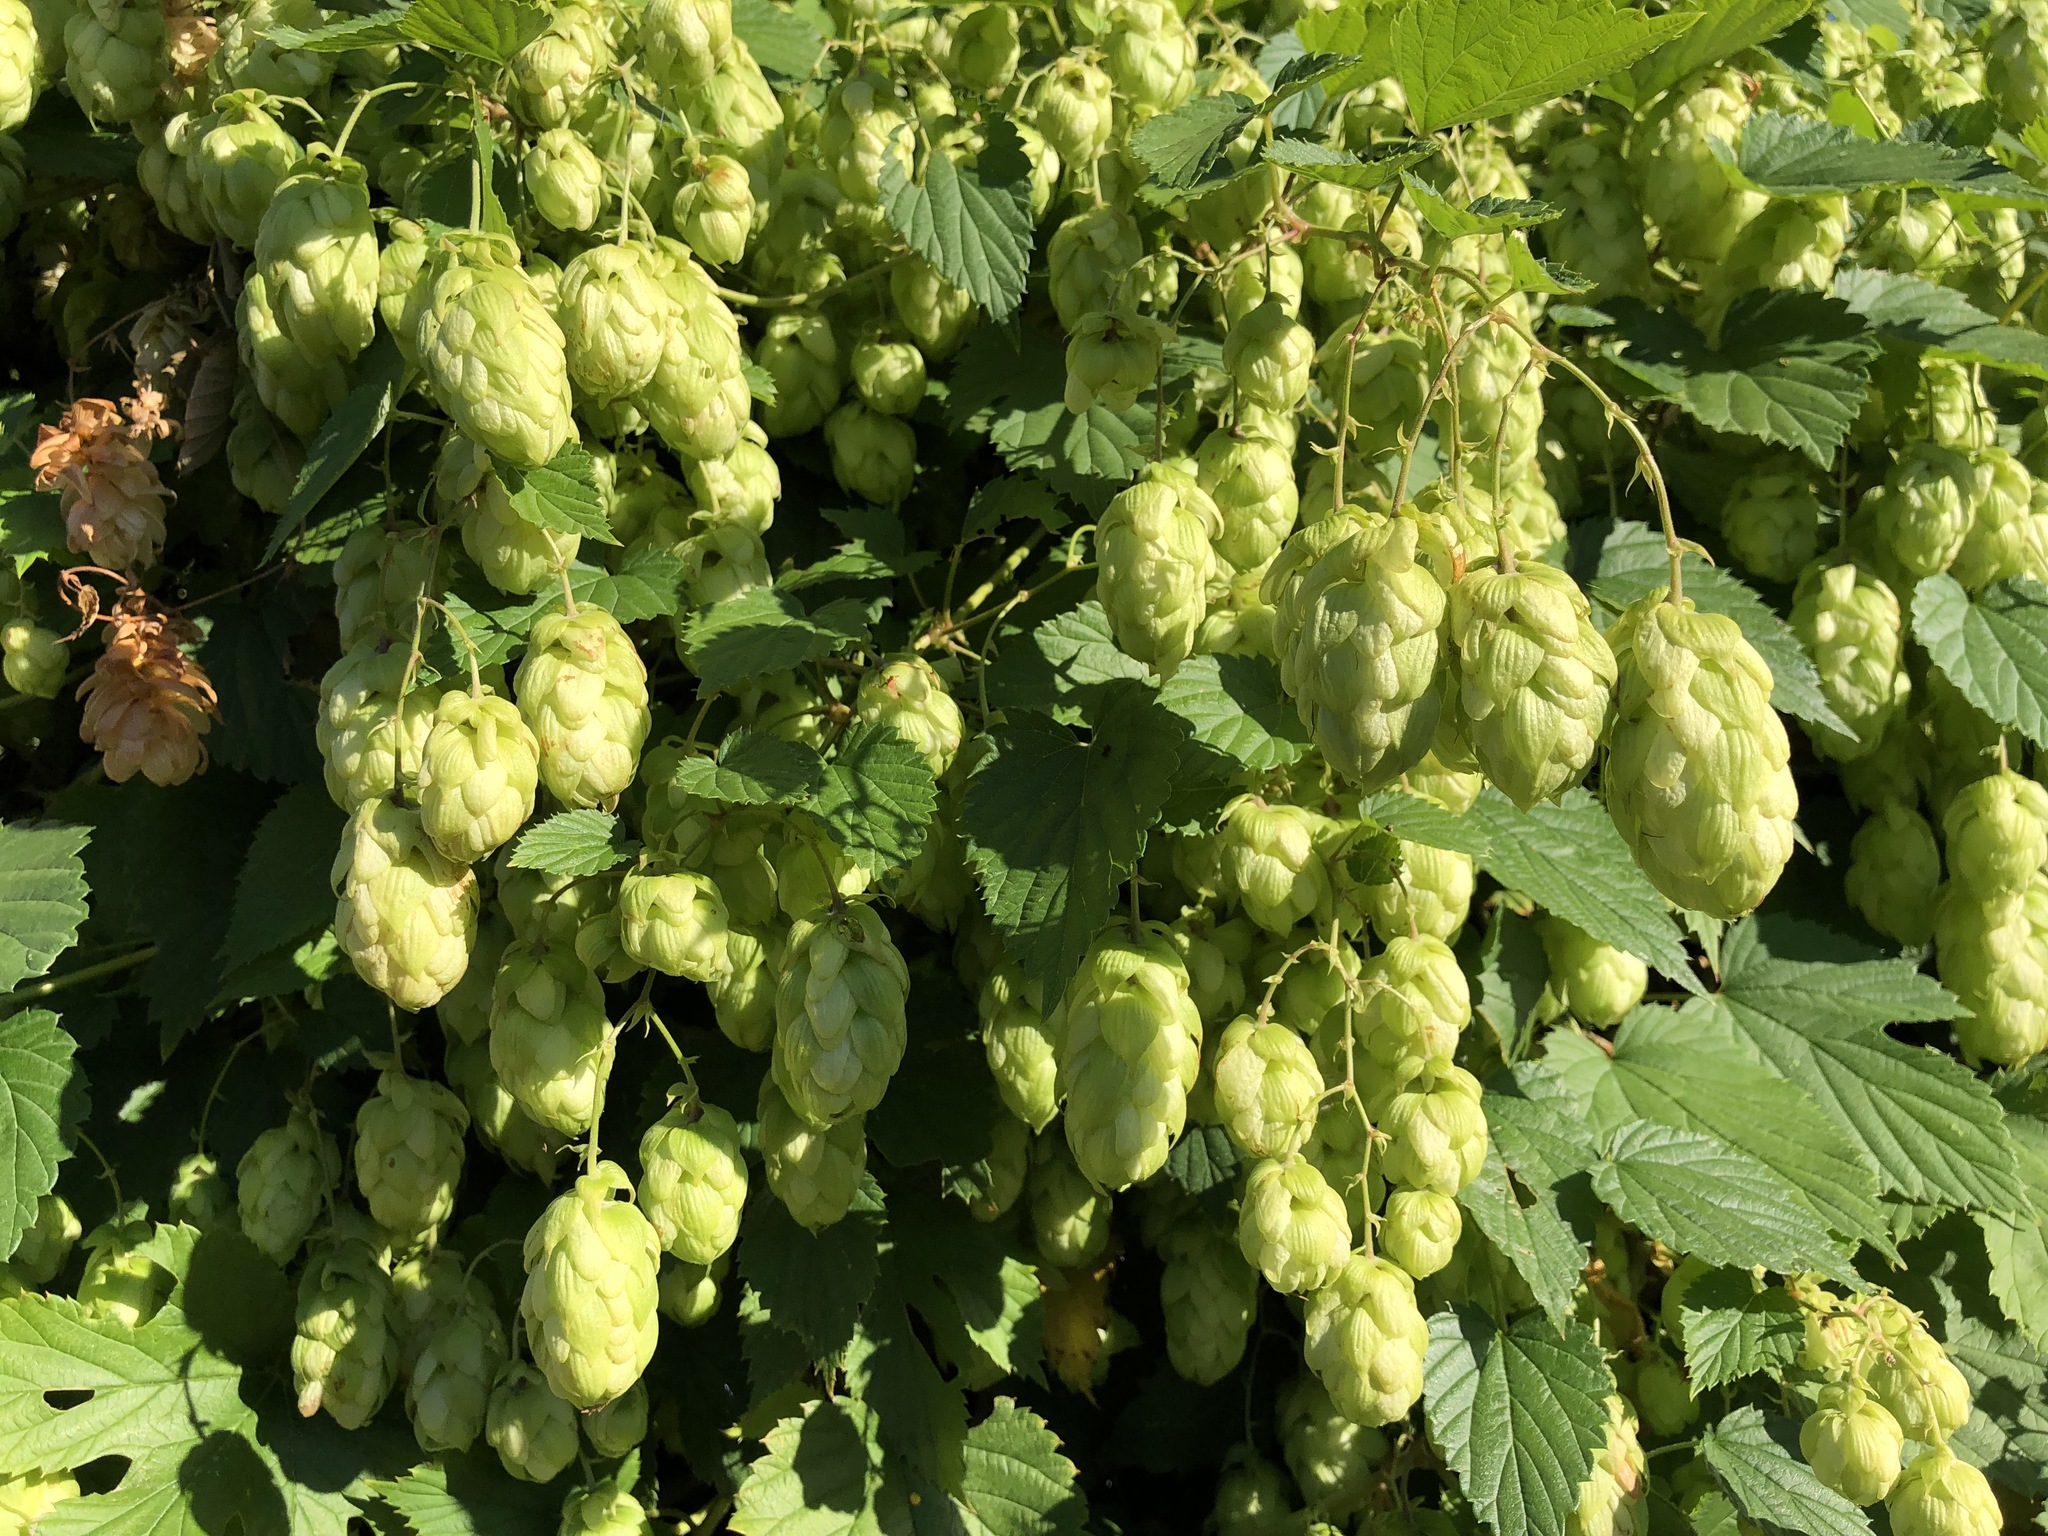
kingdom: Plantae
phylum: Tracheophyta
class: Magnoliopsida
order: Rosales
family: Cannabaceae
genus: Humulus
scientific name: Humulus lupulus
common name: Hop
